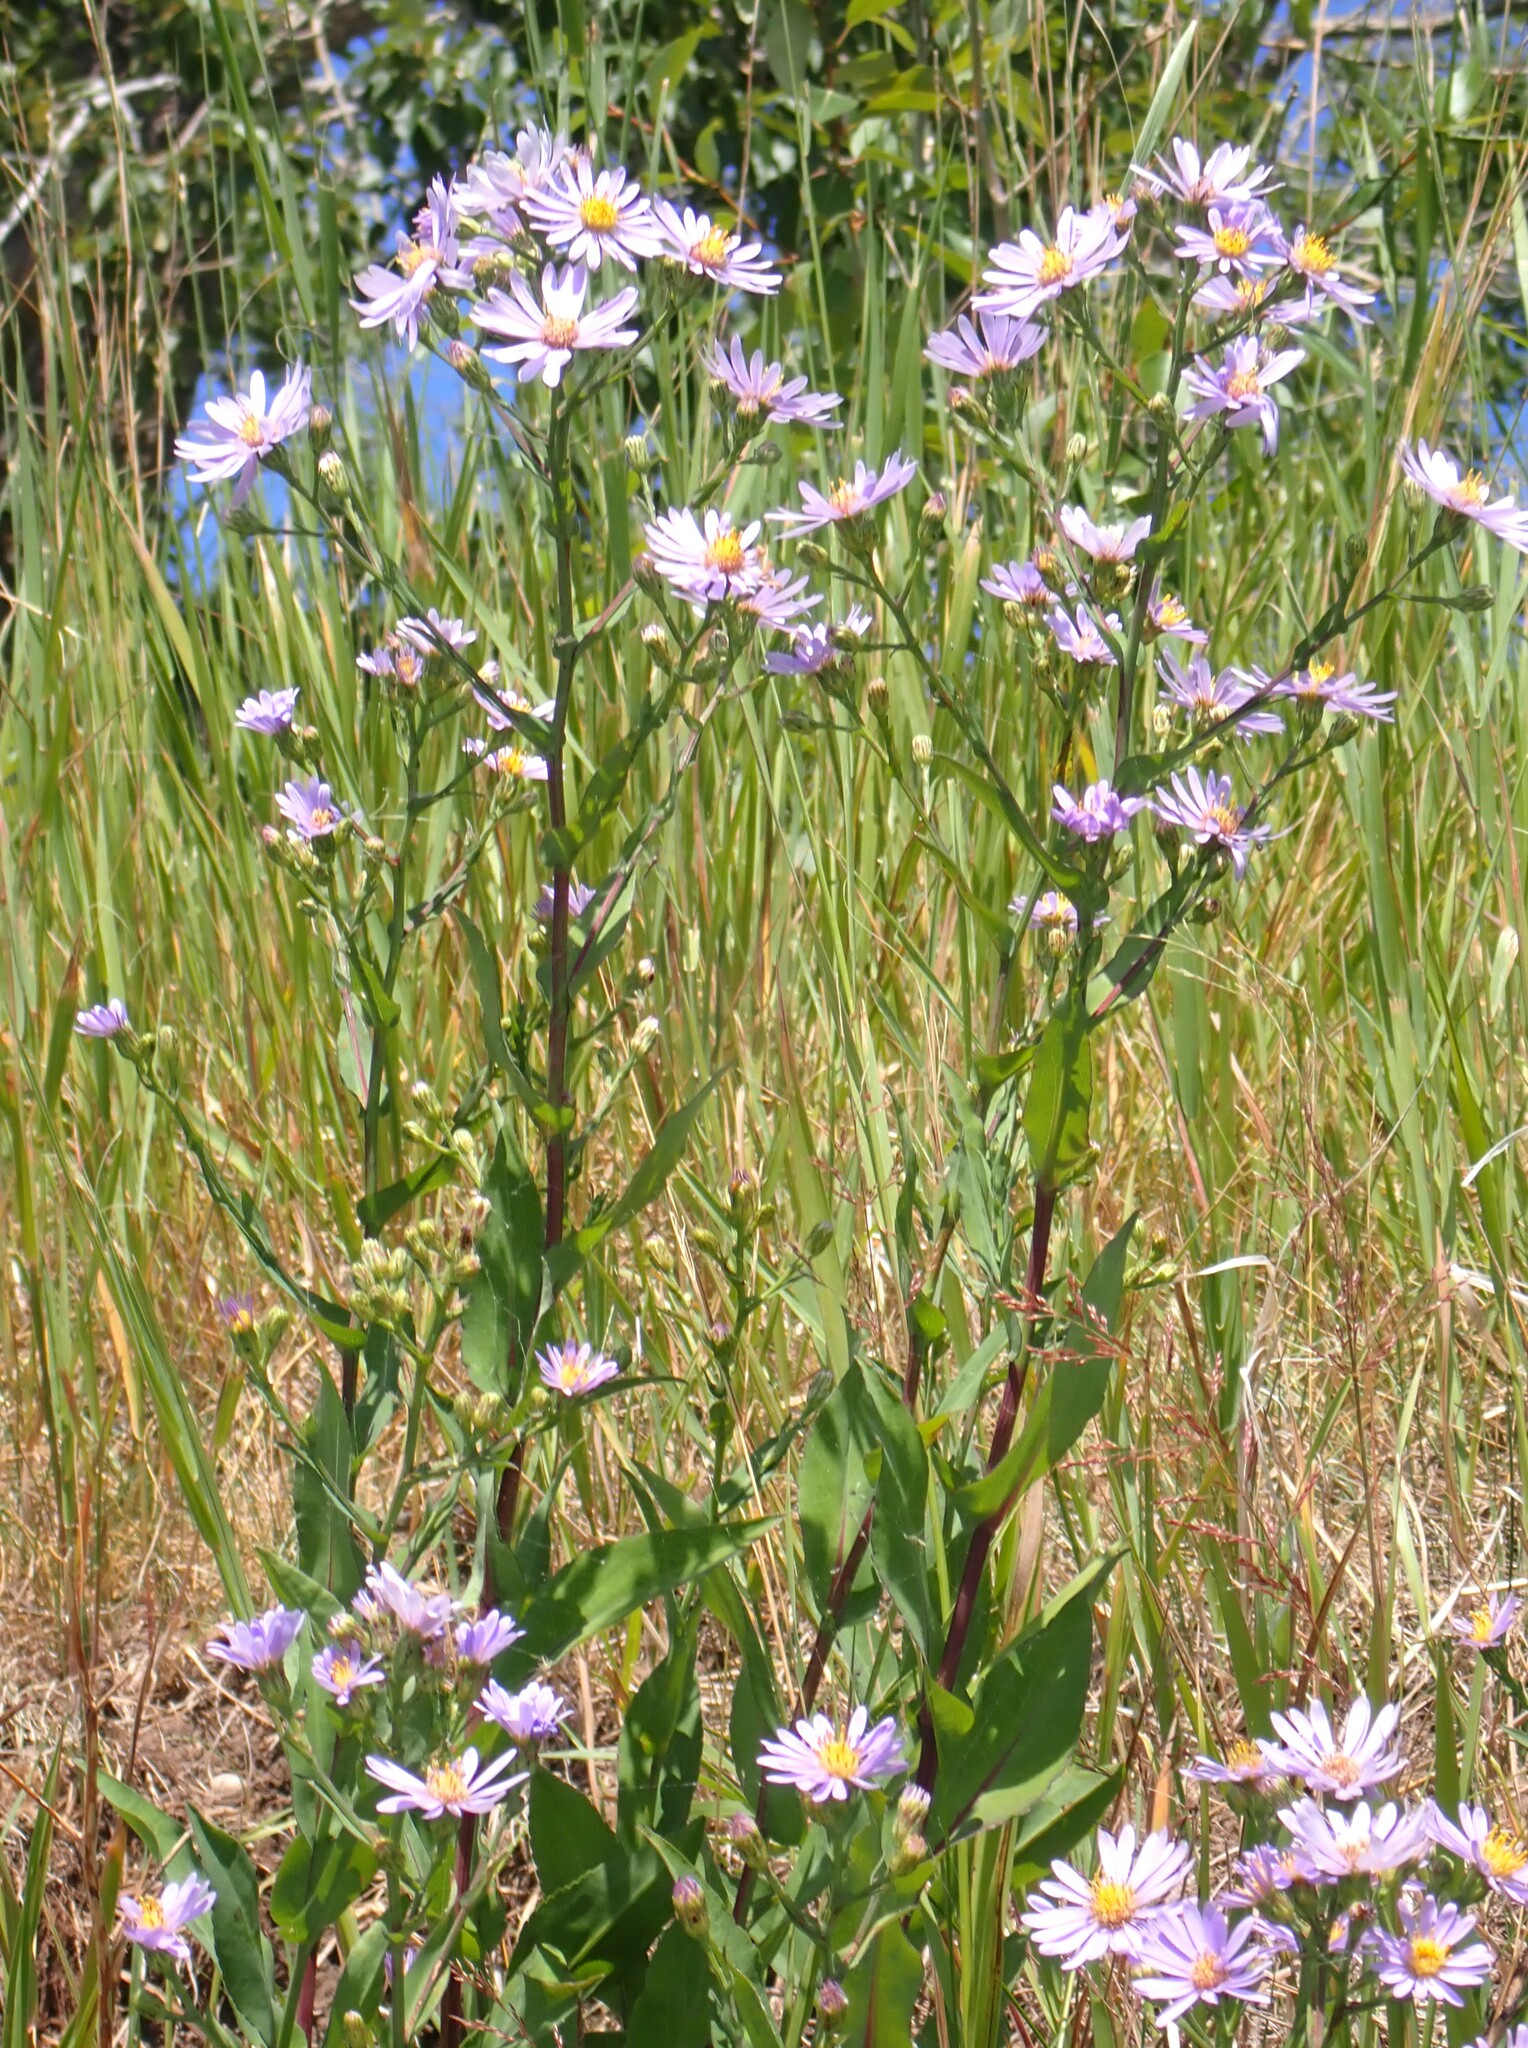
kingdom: Plantae
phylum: Tracheophyta
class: Magnoliopsida
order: Asterales
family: Asteraceae
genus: Symphyotrichum
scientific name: Symphyotrichum laeve
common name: Glaucous aster
